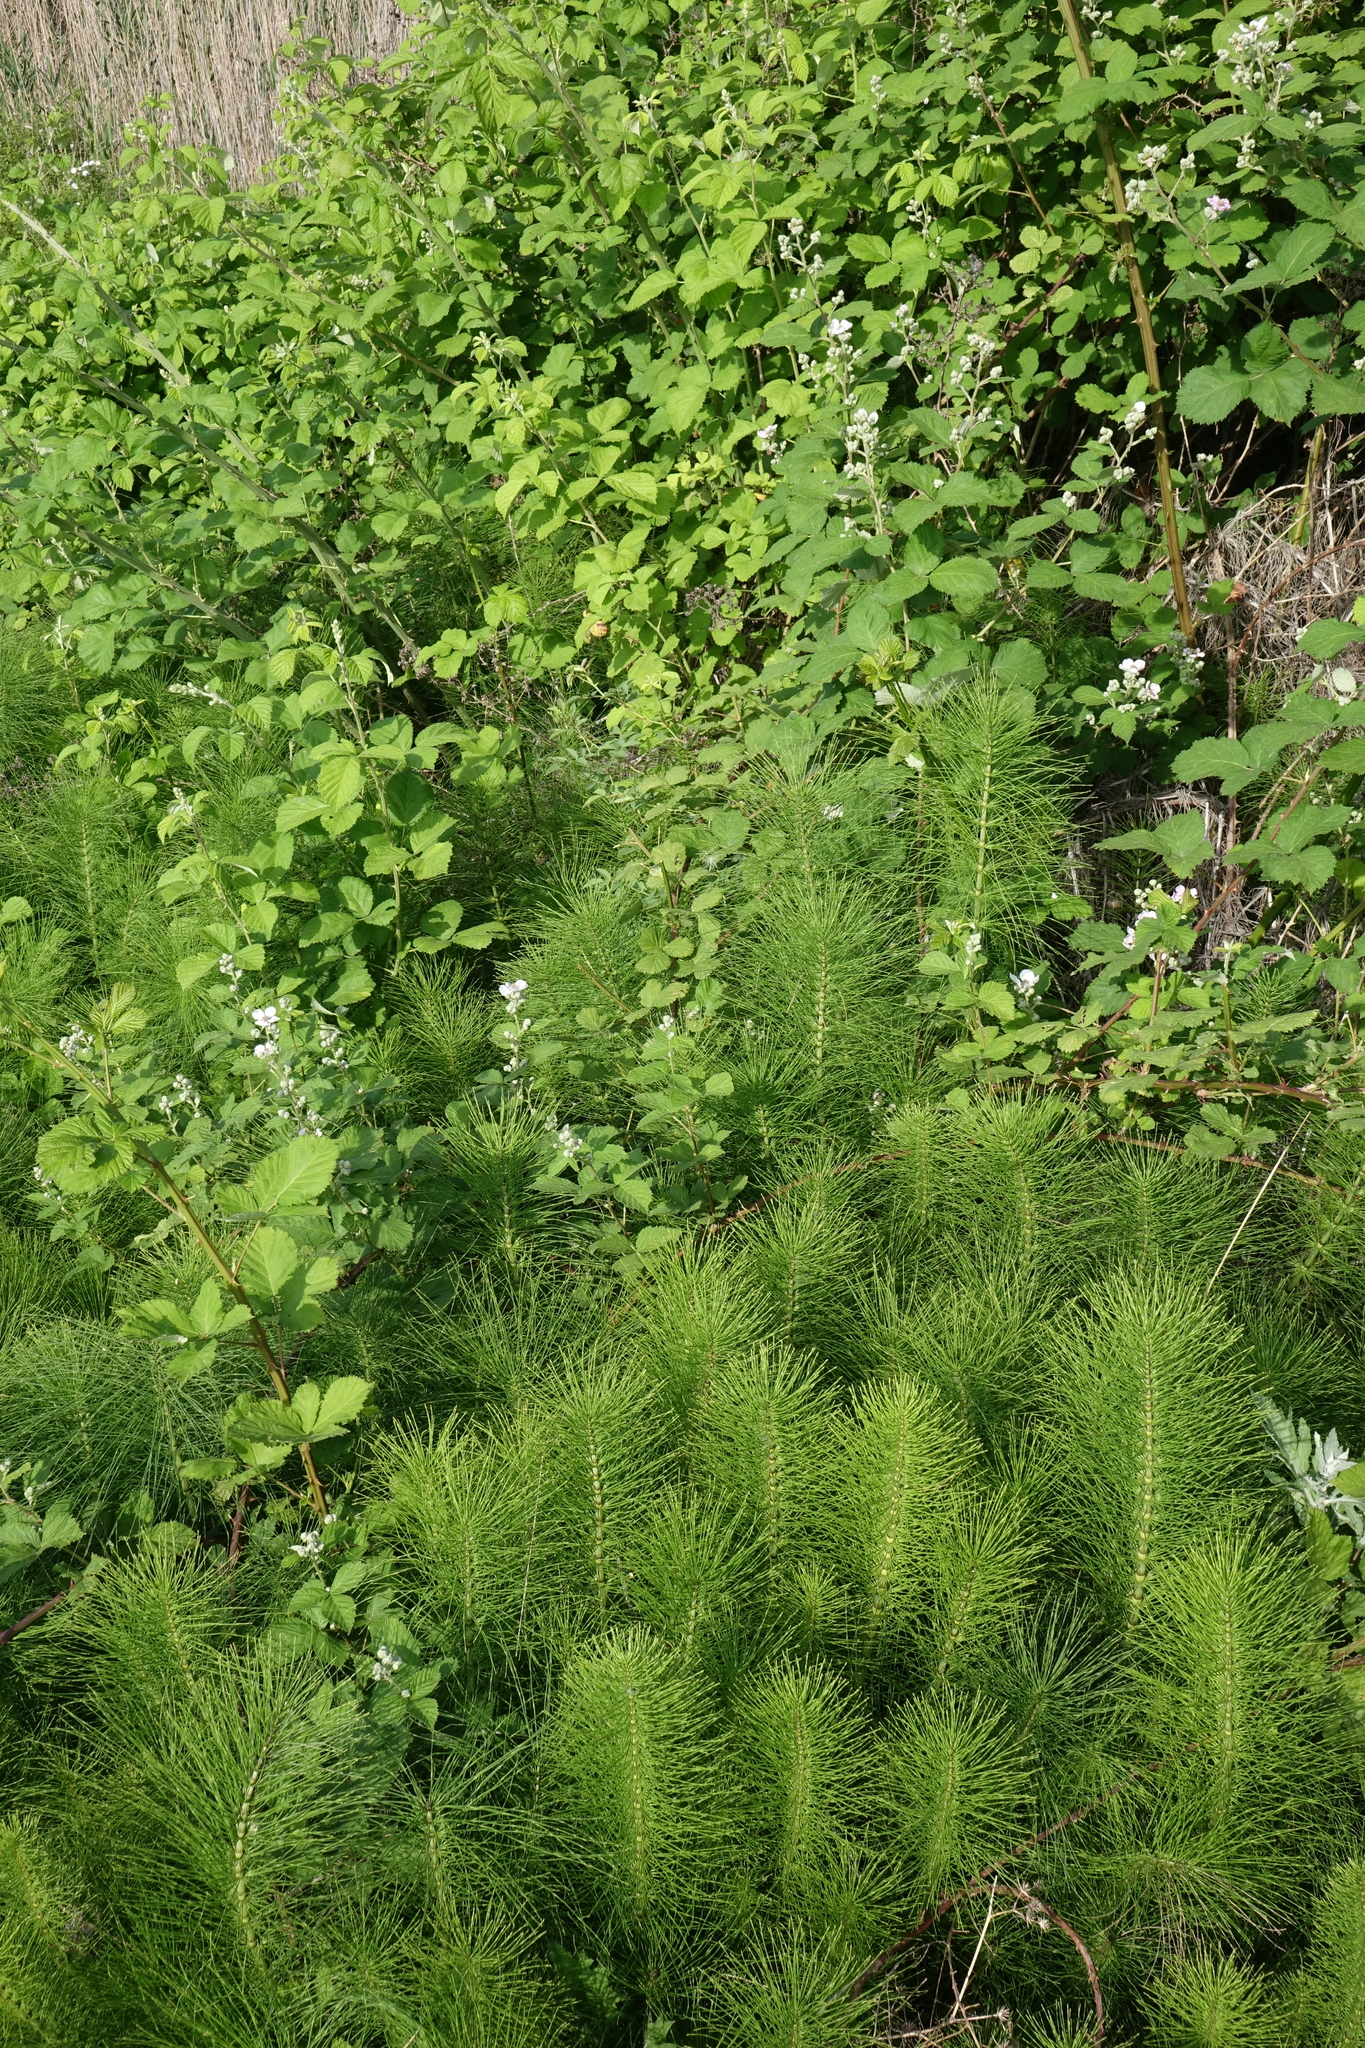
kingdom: Plantae
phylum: Tracheophyta
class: Polypodiopsida
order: Equisetales
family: Equisetaceae
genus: Equisetum
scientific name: Equisetum telmateia
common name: Great horsetail
